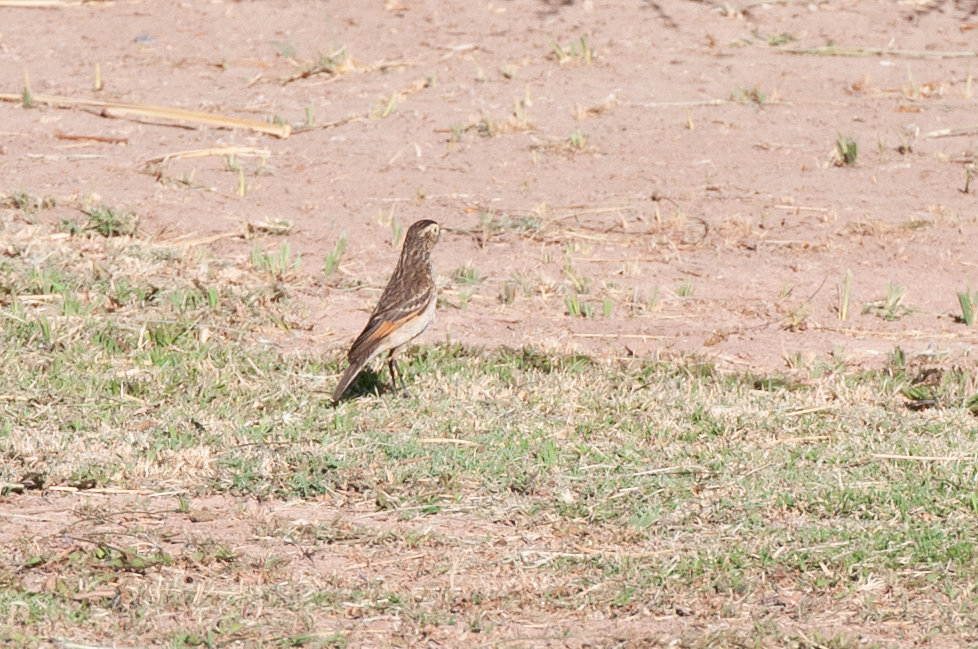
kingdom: Animalia
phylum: Chordata
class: Aves
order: Passeriformes
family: Tyrannidae
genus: Hymenops
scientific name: Hymenops perspicillatus
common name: Spectacled tyrant
